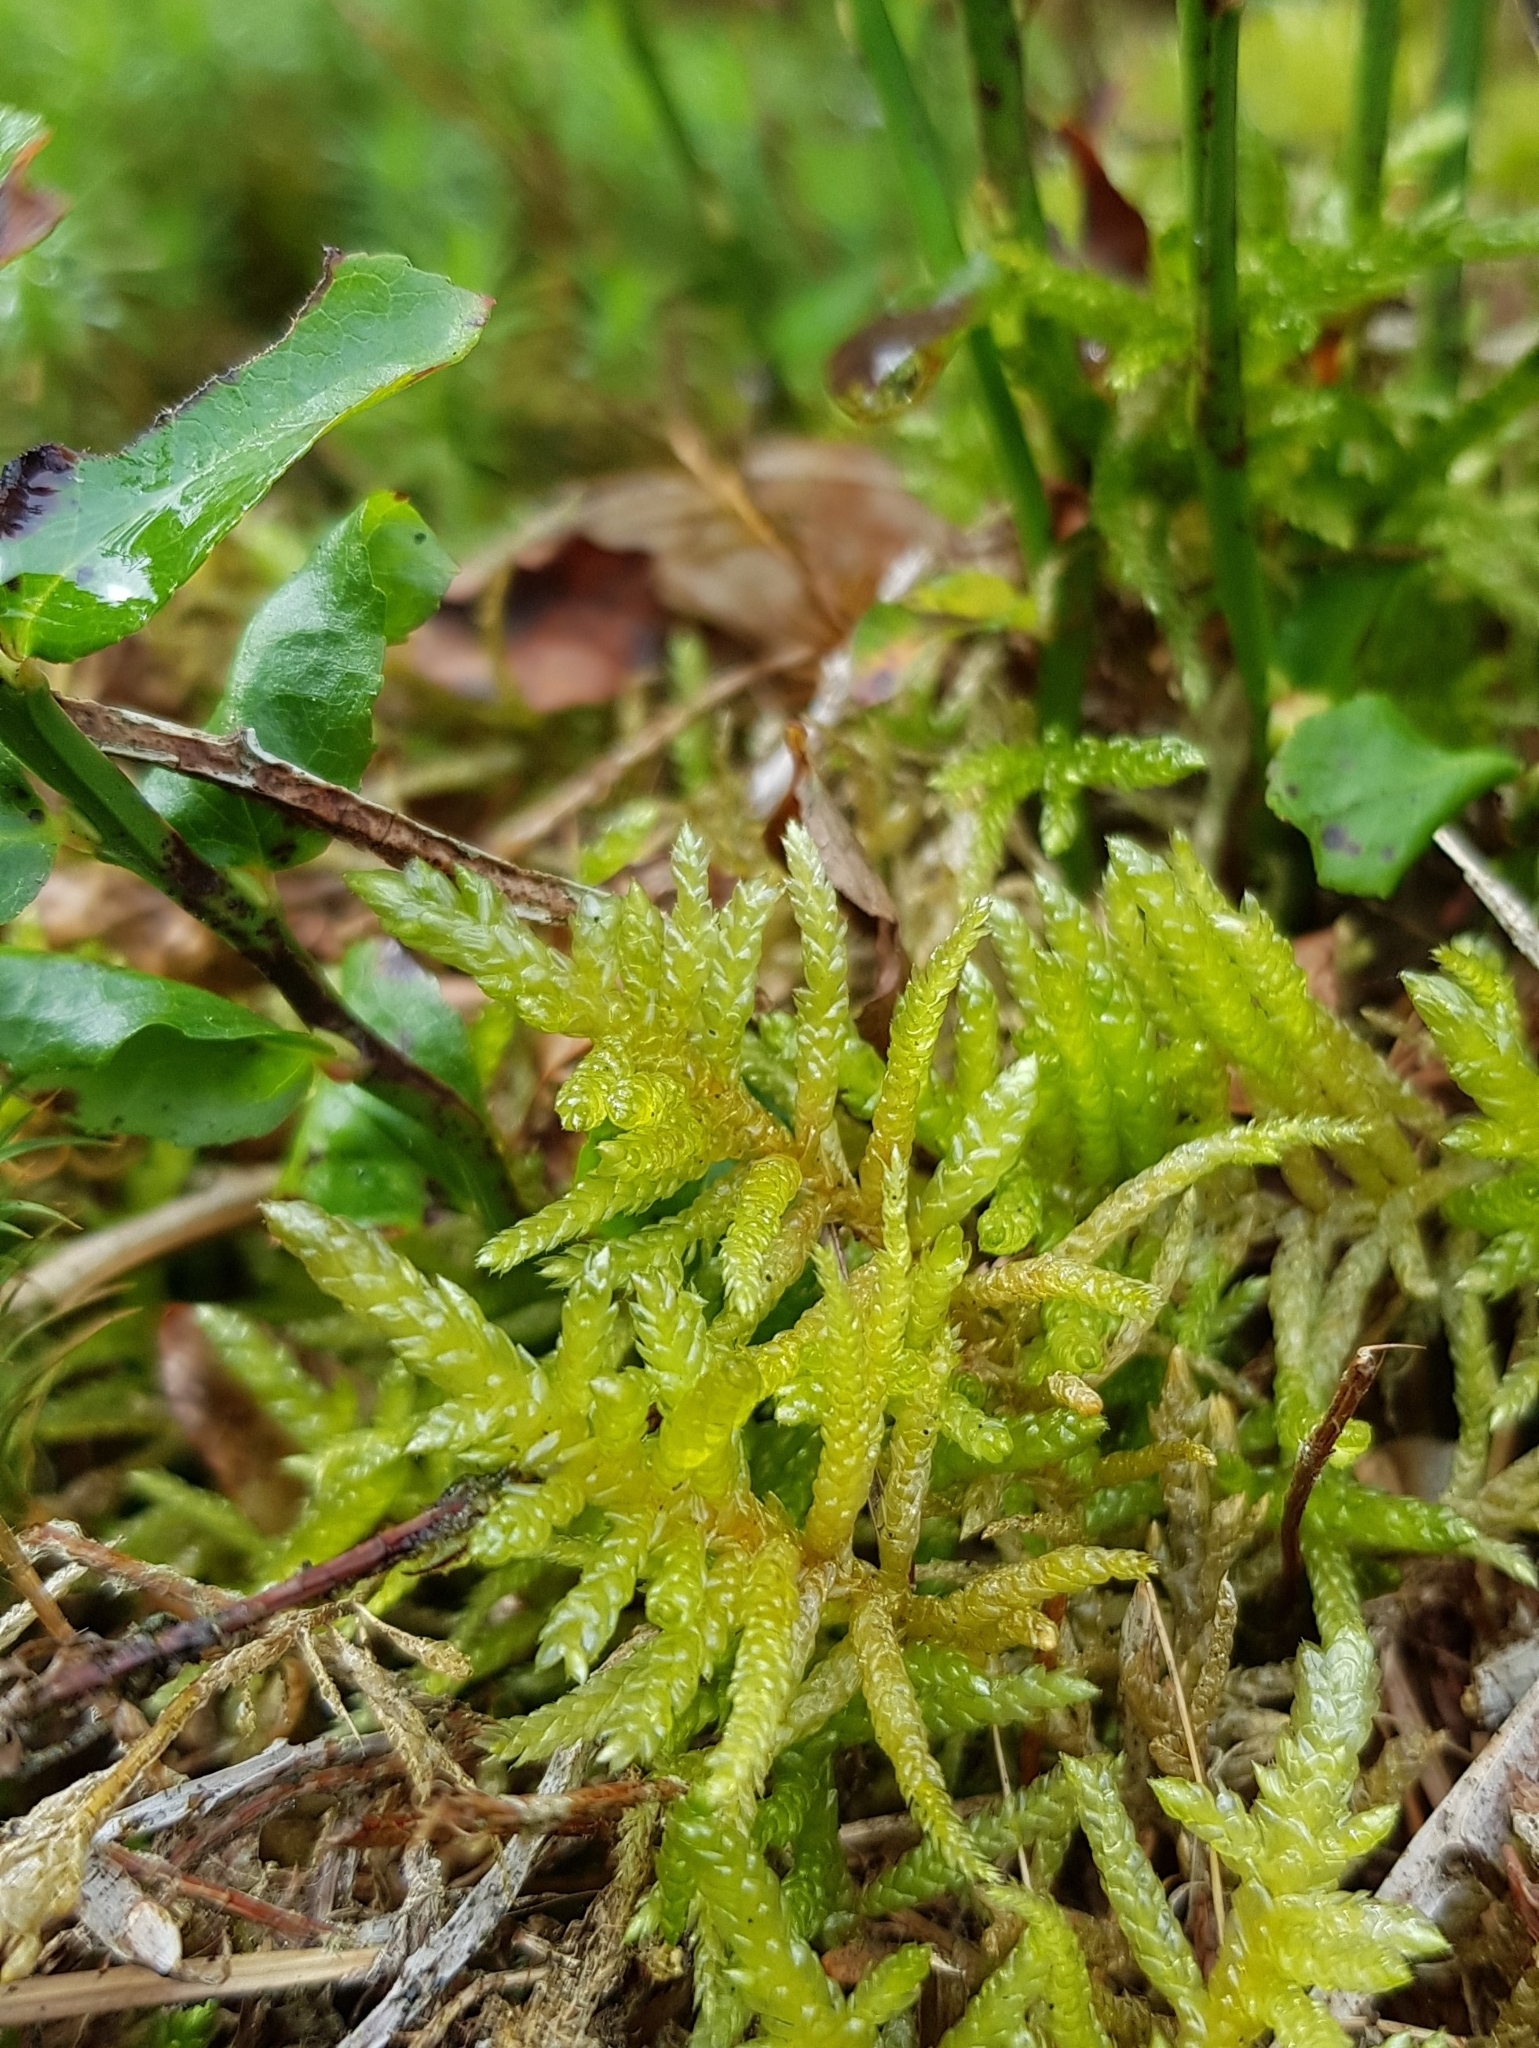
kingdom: Plantae
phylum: Bryophyta
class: Bryopsida
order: Hypnales
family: Brachytheciaceae
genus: Pseudoscleropodium
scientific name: Pseudoscleropodium purum
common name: Neat feather-moss
